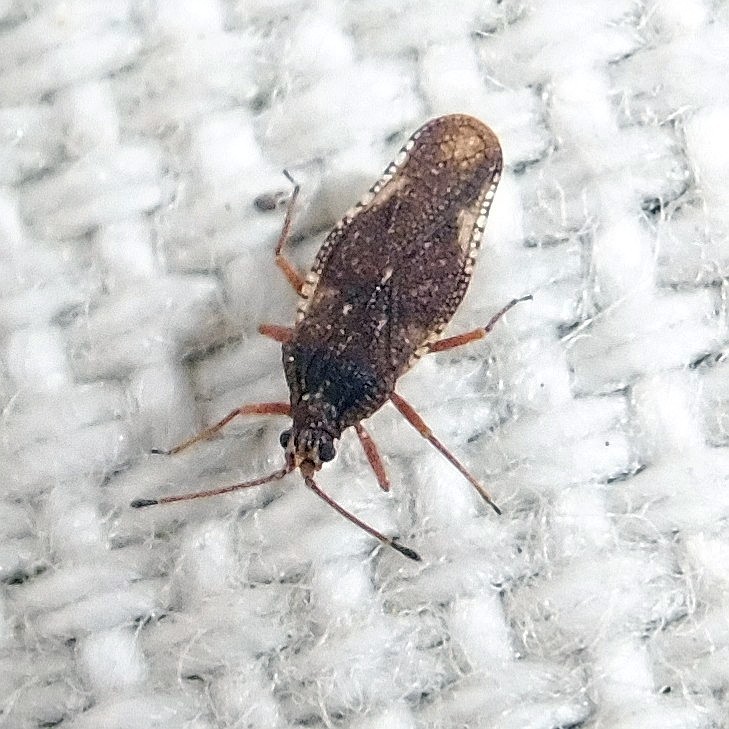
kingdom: Animalia
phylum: Arthropoda
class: Insecta
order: Hemiptera
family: Tingidae
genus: Physatocheila
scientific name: Physatocheila dumetorum
